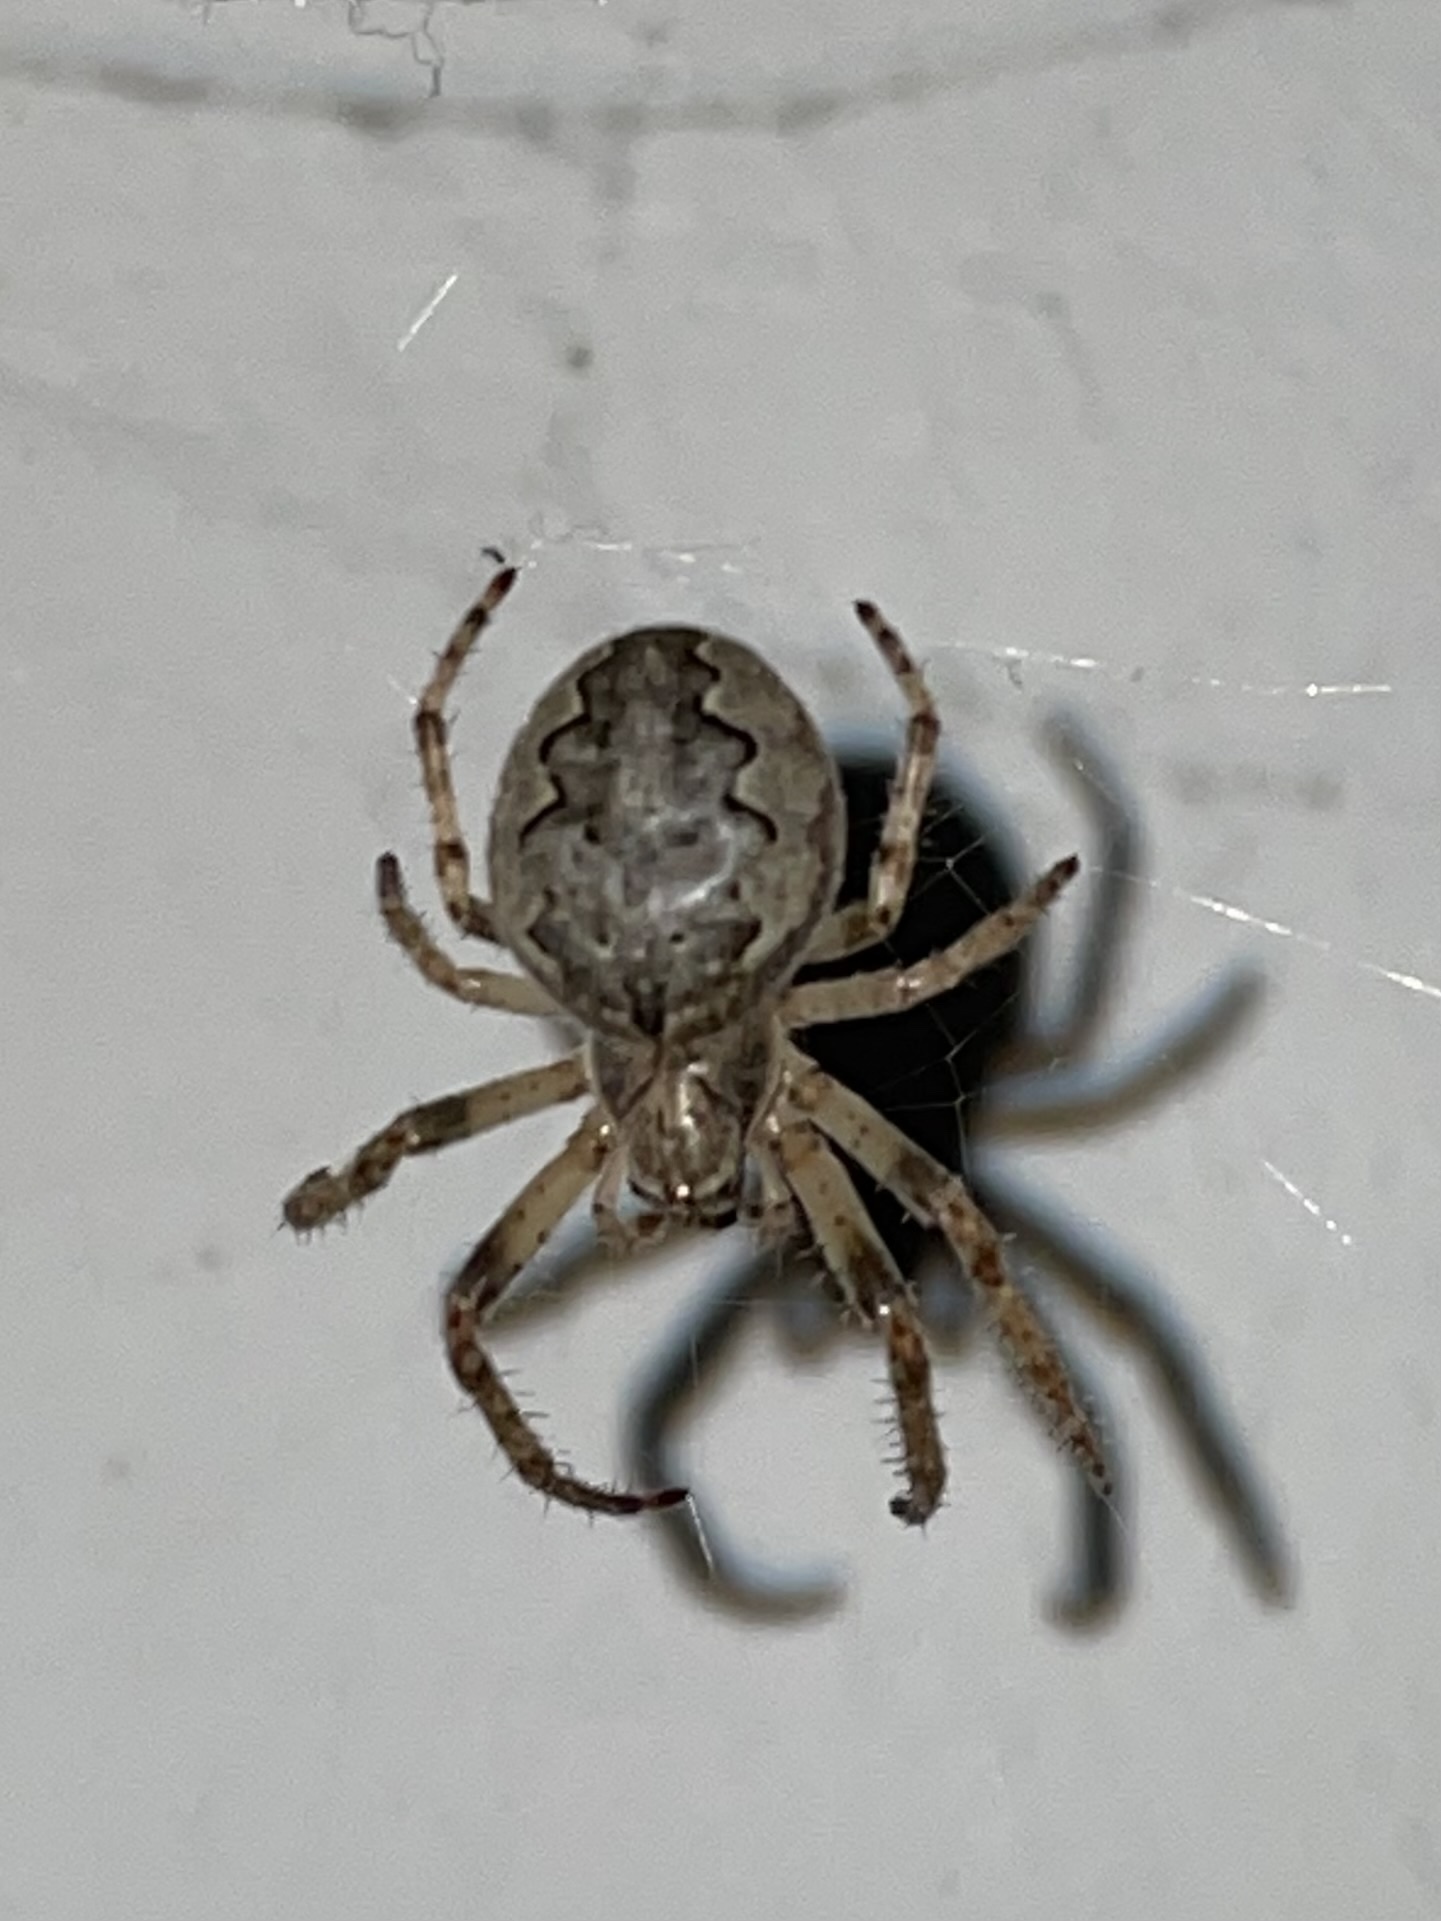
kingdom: Animalia
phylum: Arthropoda
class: Arachnida
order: Araneae
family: Araneidae
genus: Larinioides
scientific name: Larinioides ixobolus
